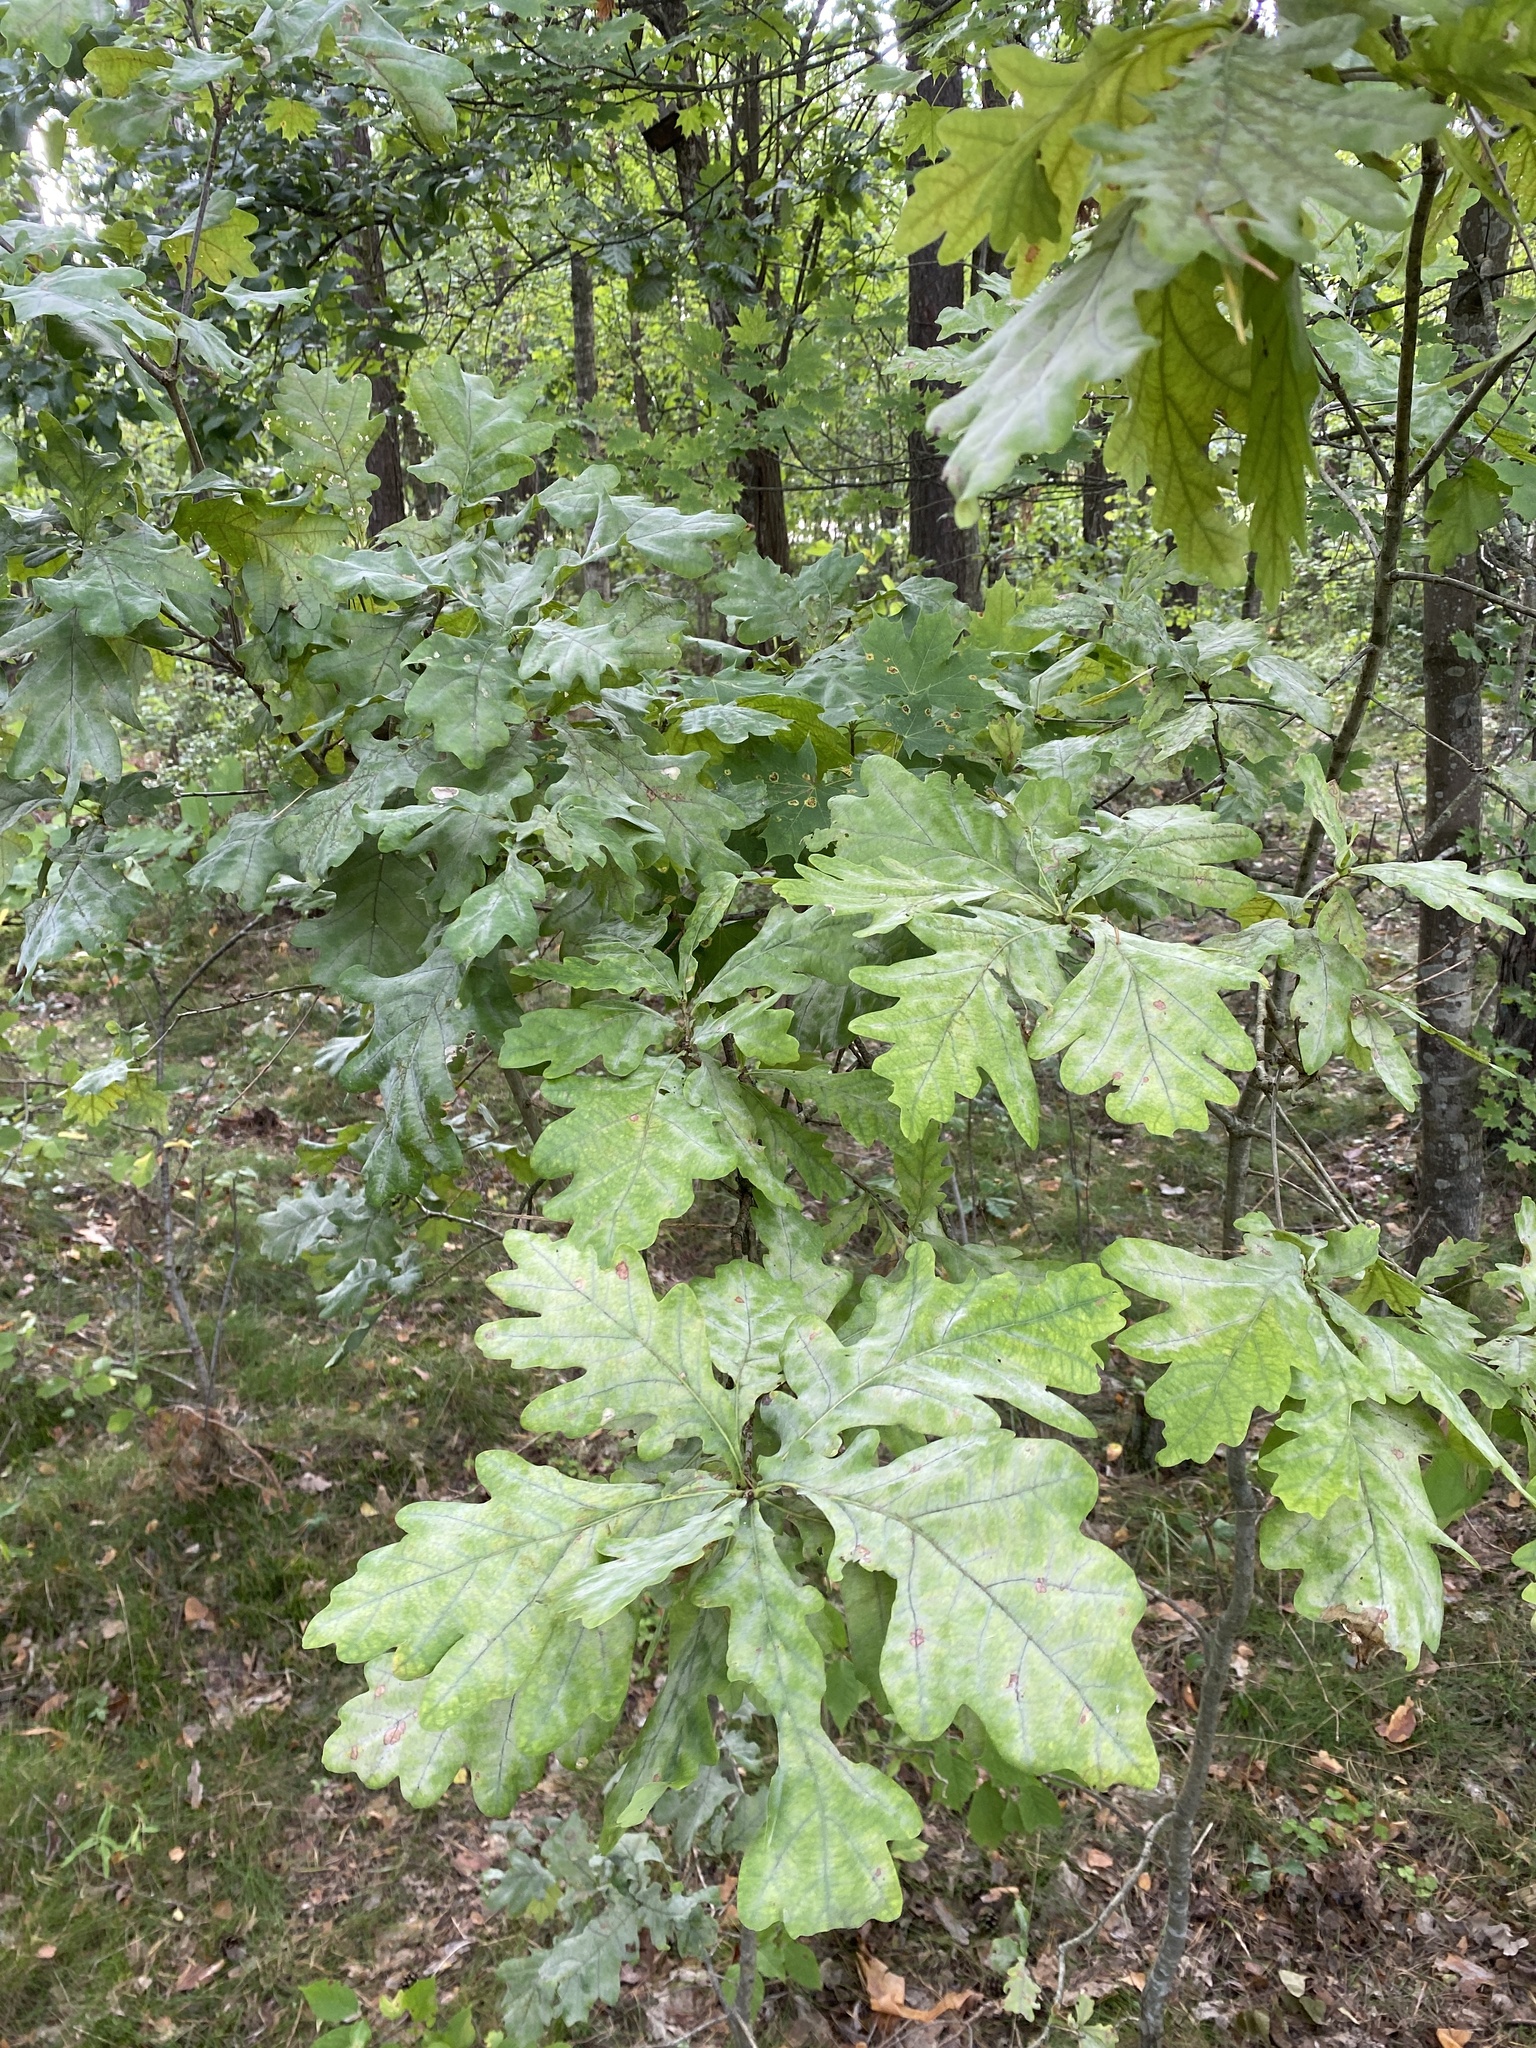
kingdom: Plantae
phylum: Tracheophyta
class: Magnoliopsida
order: Fagales
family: Fagaceae
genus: Quercus
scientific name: Quercus robur
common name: Pedunculate oak
